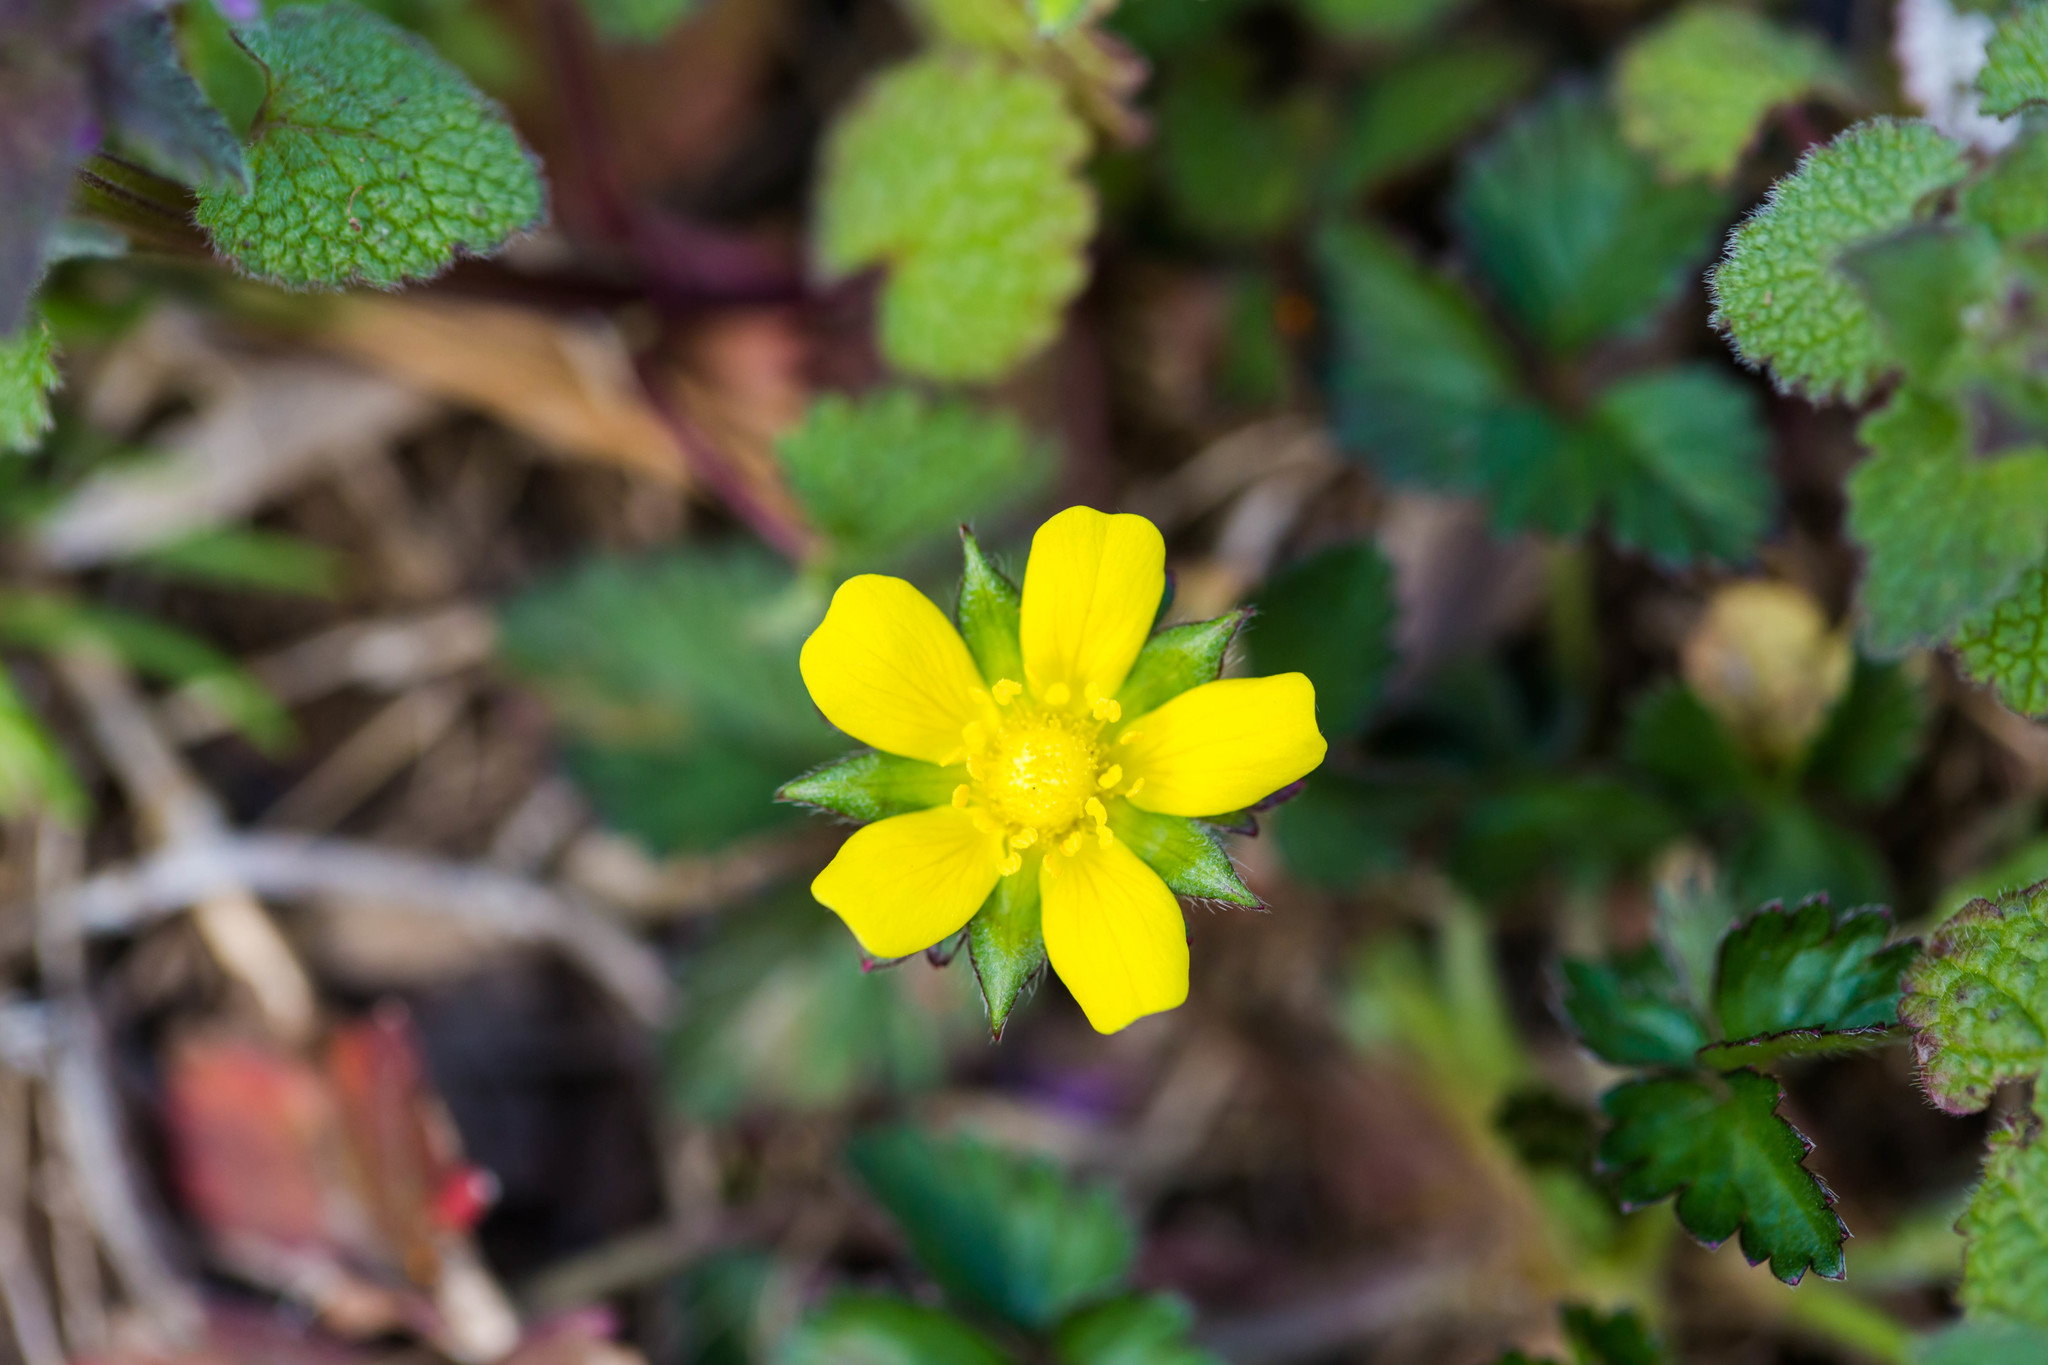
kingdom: Plantae
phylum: Tracheophyta
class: Magnoliopsida
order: Rosales
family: Rosaceae
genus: Potentilla
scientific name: Potentilla indica
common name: Yellow-flowered strawberry
